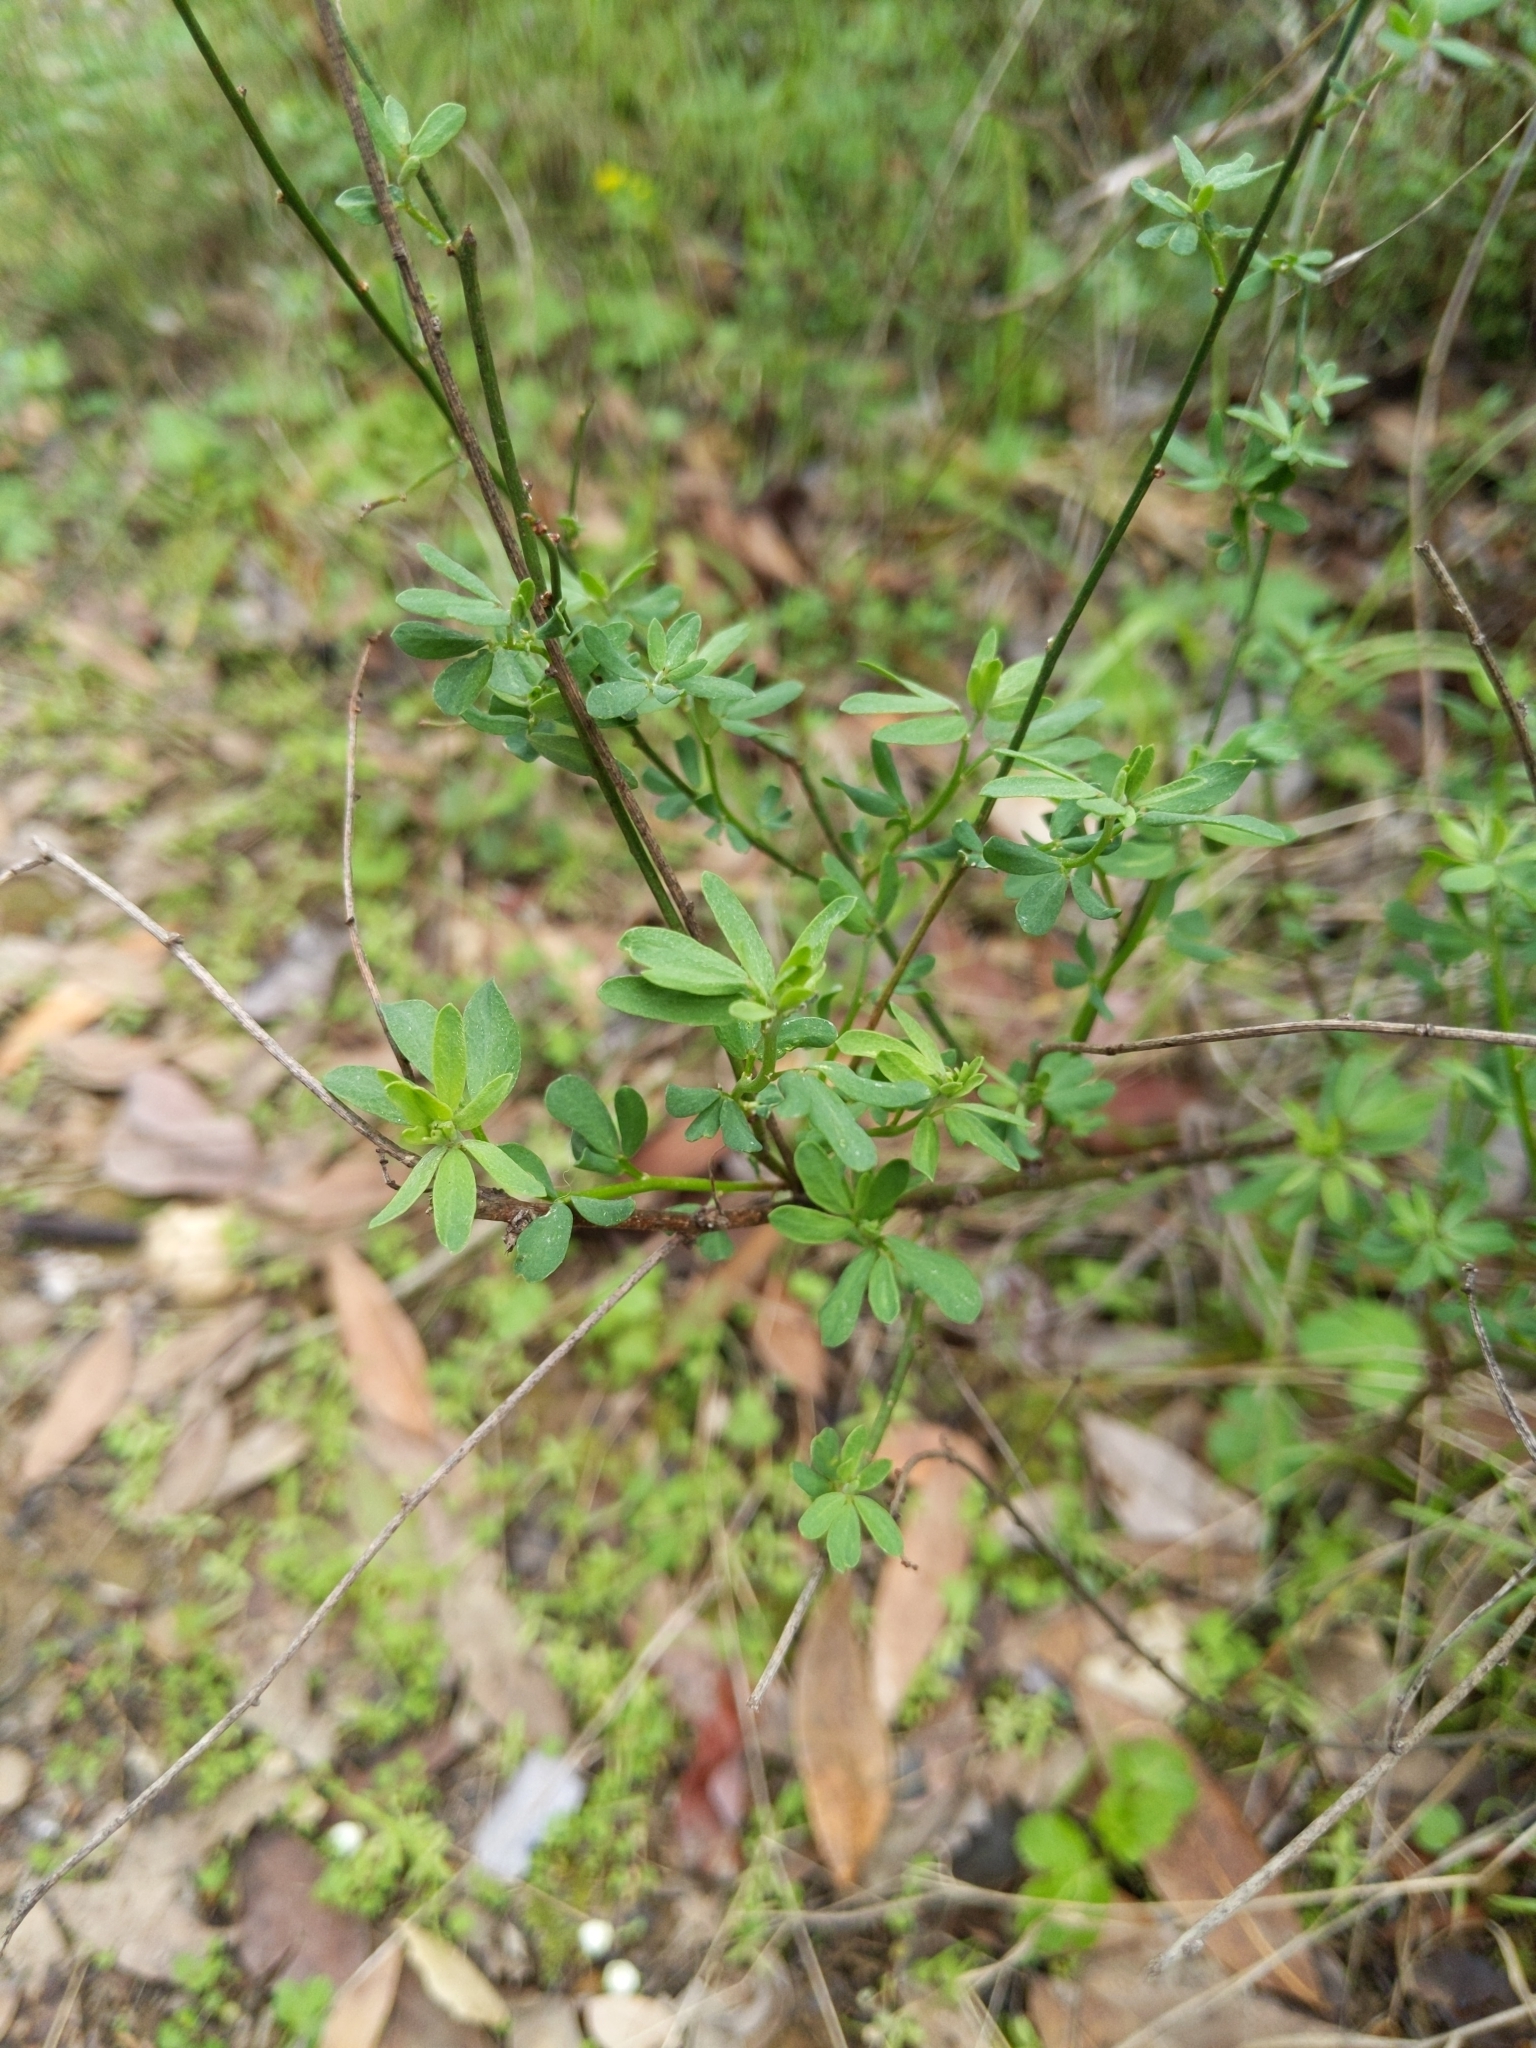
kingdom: Plantae
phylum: Tracheophyta
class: Magnoliopsida
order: Fabales
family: Fabaceae
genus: Acmispon
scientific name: Acmispon glaber
